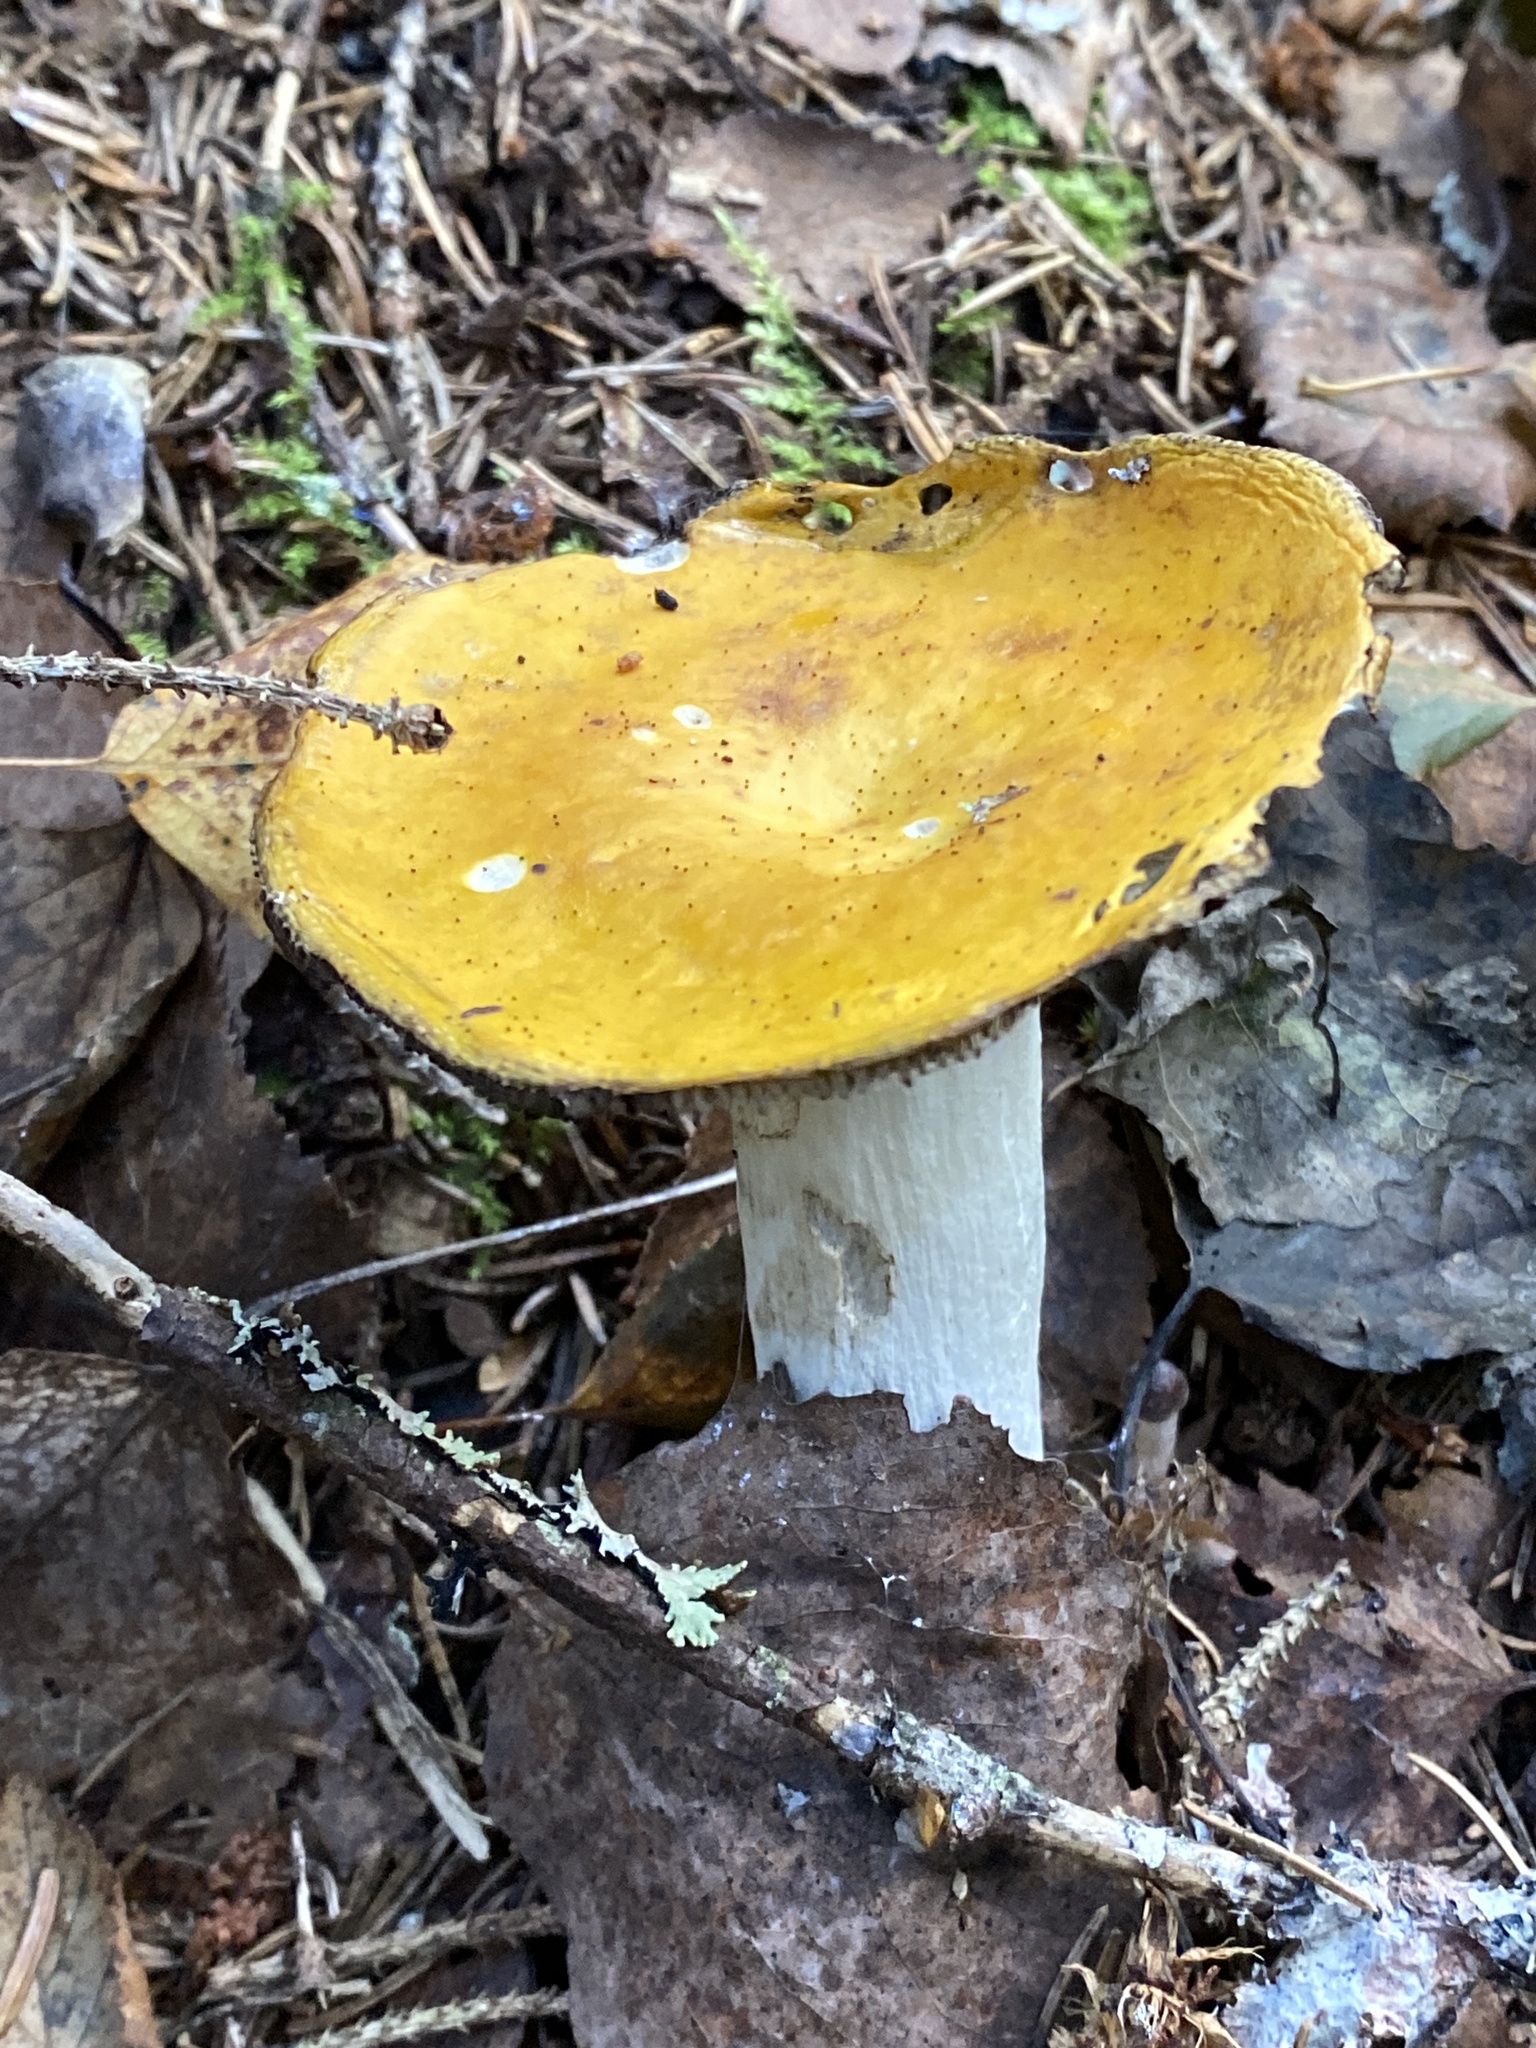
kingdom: Fungi
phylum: Basidiomycota
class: Agaricomycetes
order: Russulales
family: Russulaceae
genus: Russula
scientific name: Russula claroflava
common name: The yellow swamp brittlegill
